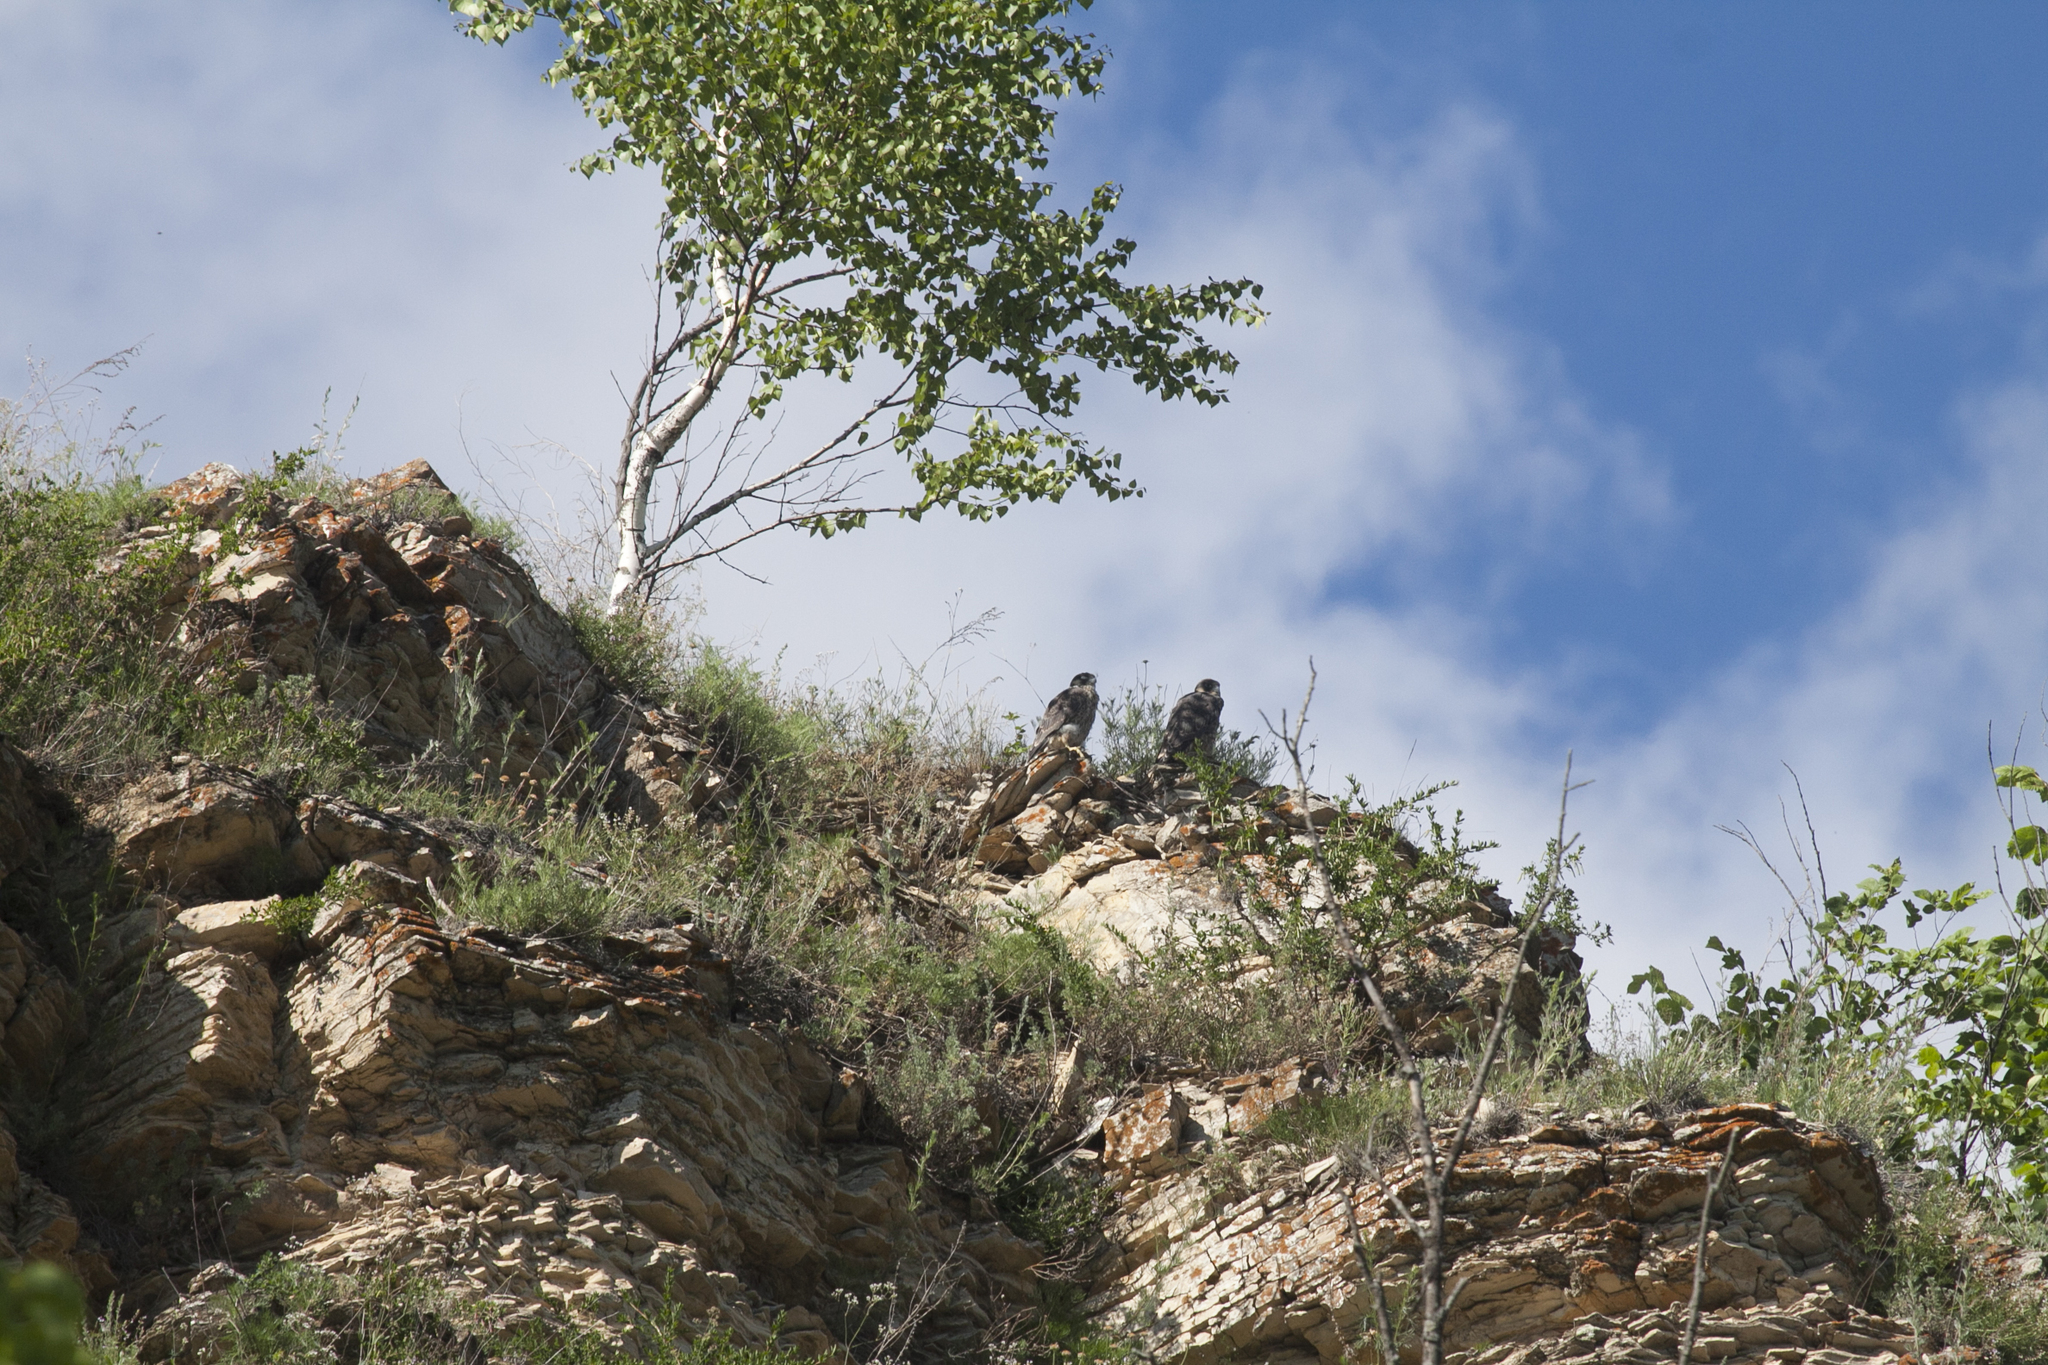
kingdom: Animalia
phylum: Chordata
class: Aves
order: Falconiformes
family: Falconidae
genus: Falco
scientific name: Falco peregrinus
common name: Peregrine falcon
